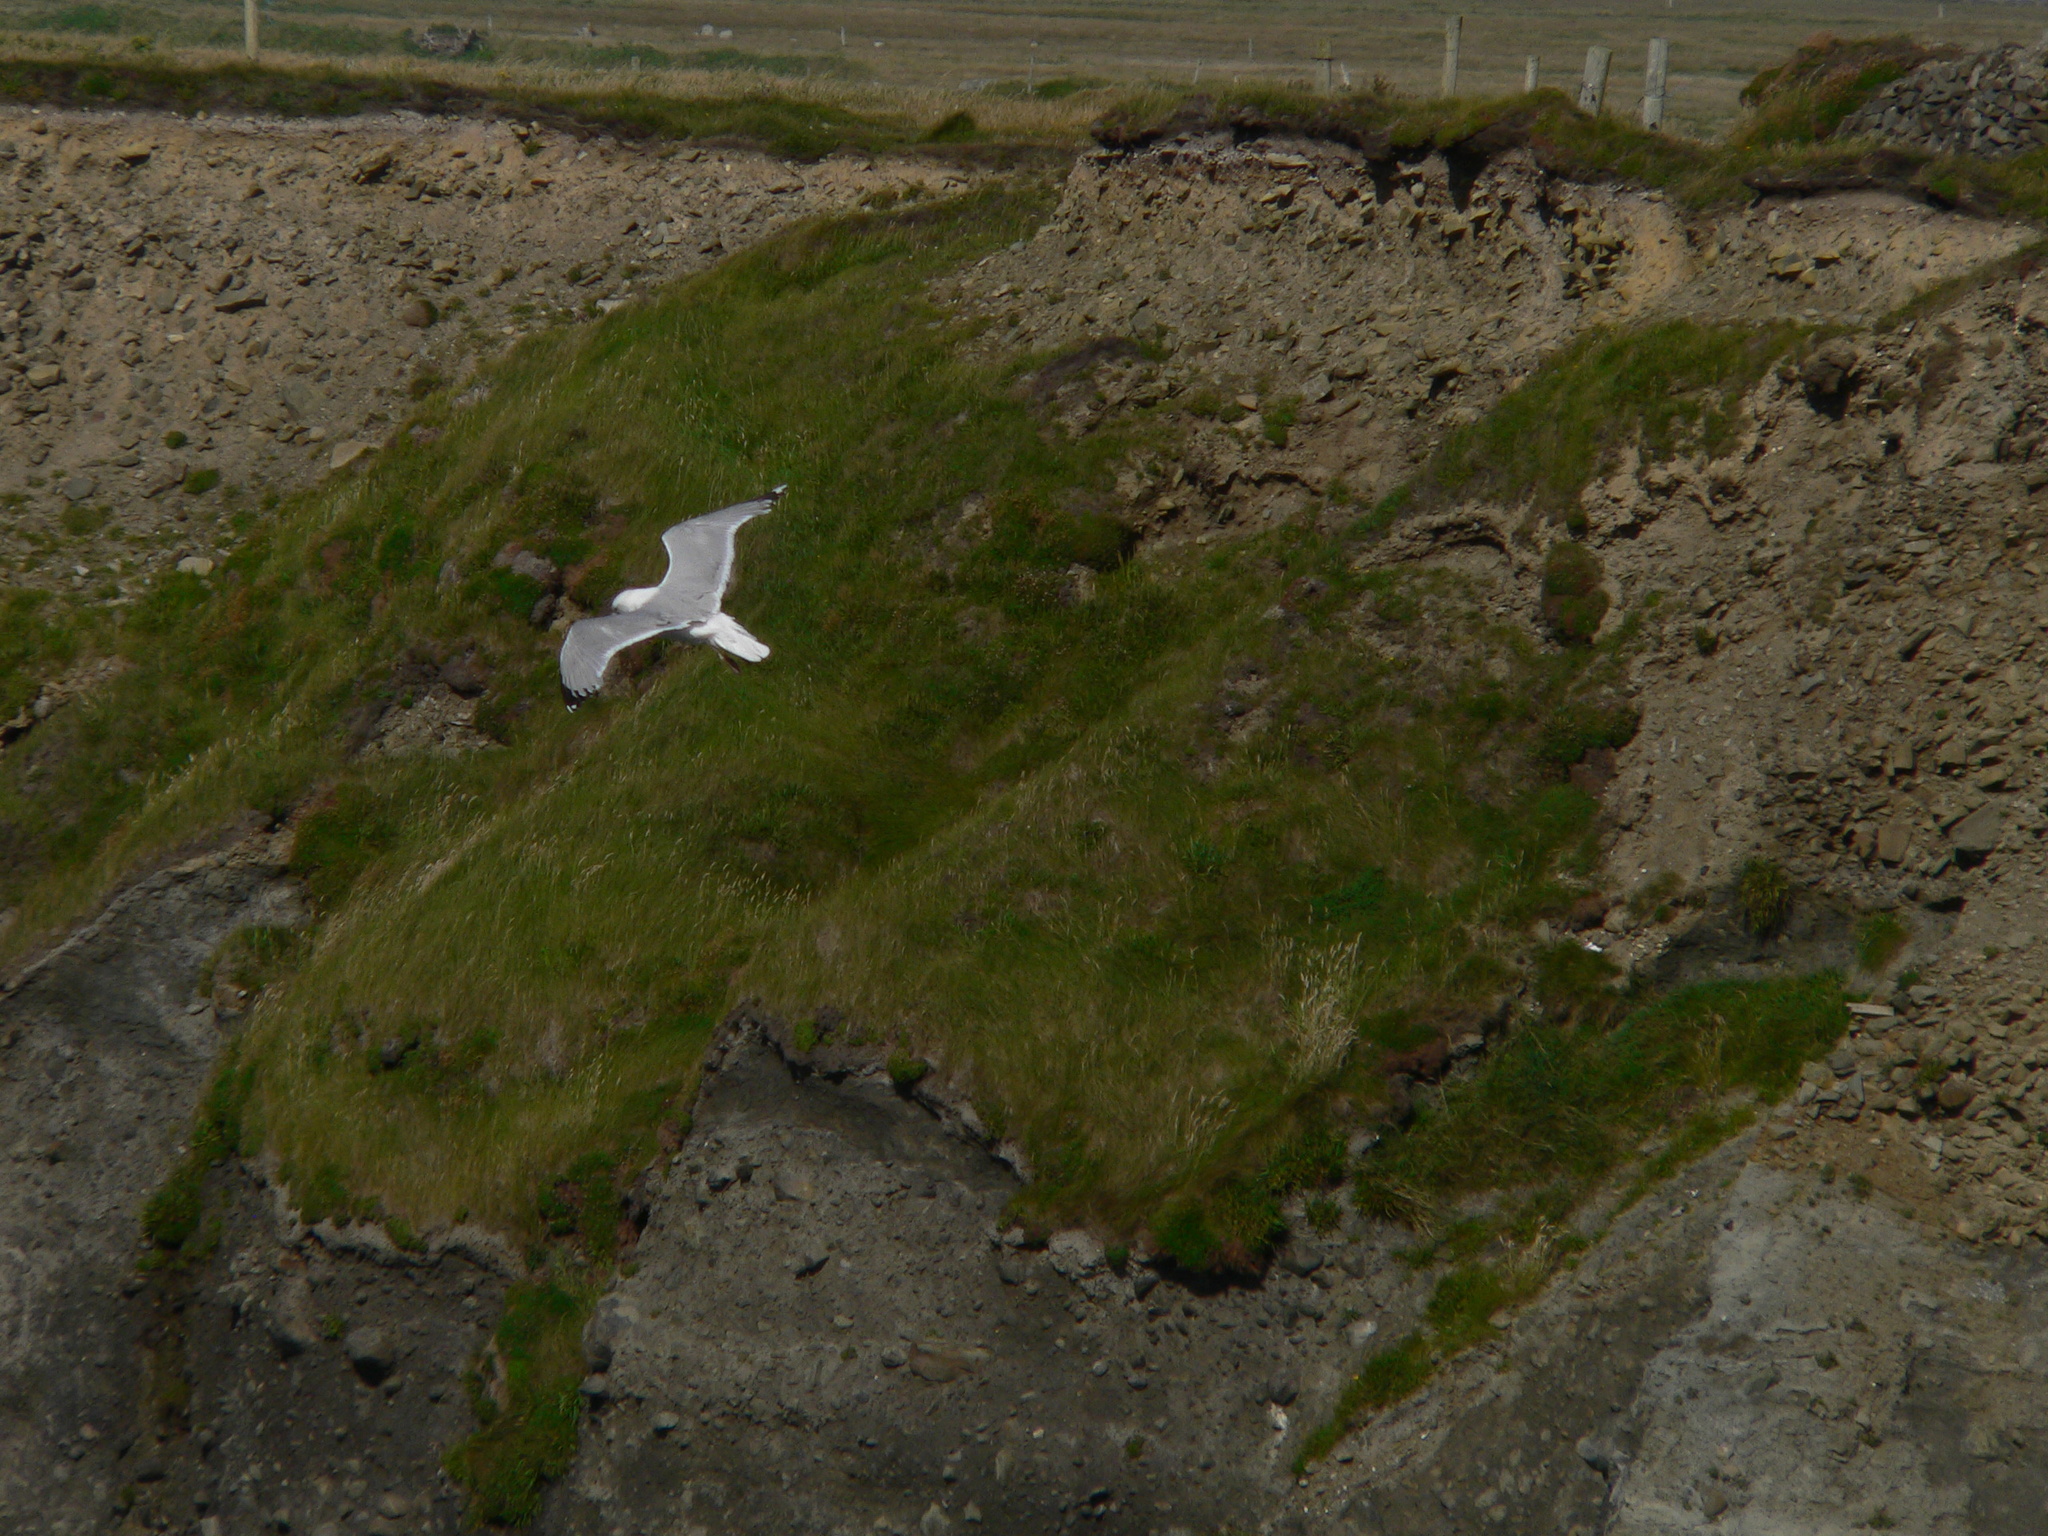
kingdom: Animalia
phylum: Chordata
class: Aves
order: Charadriiformes
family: Laridae
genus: Larus
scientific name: Larus argentatus
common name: Herring gull
